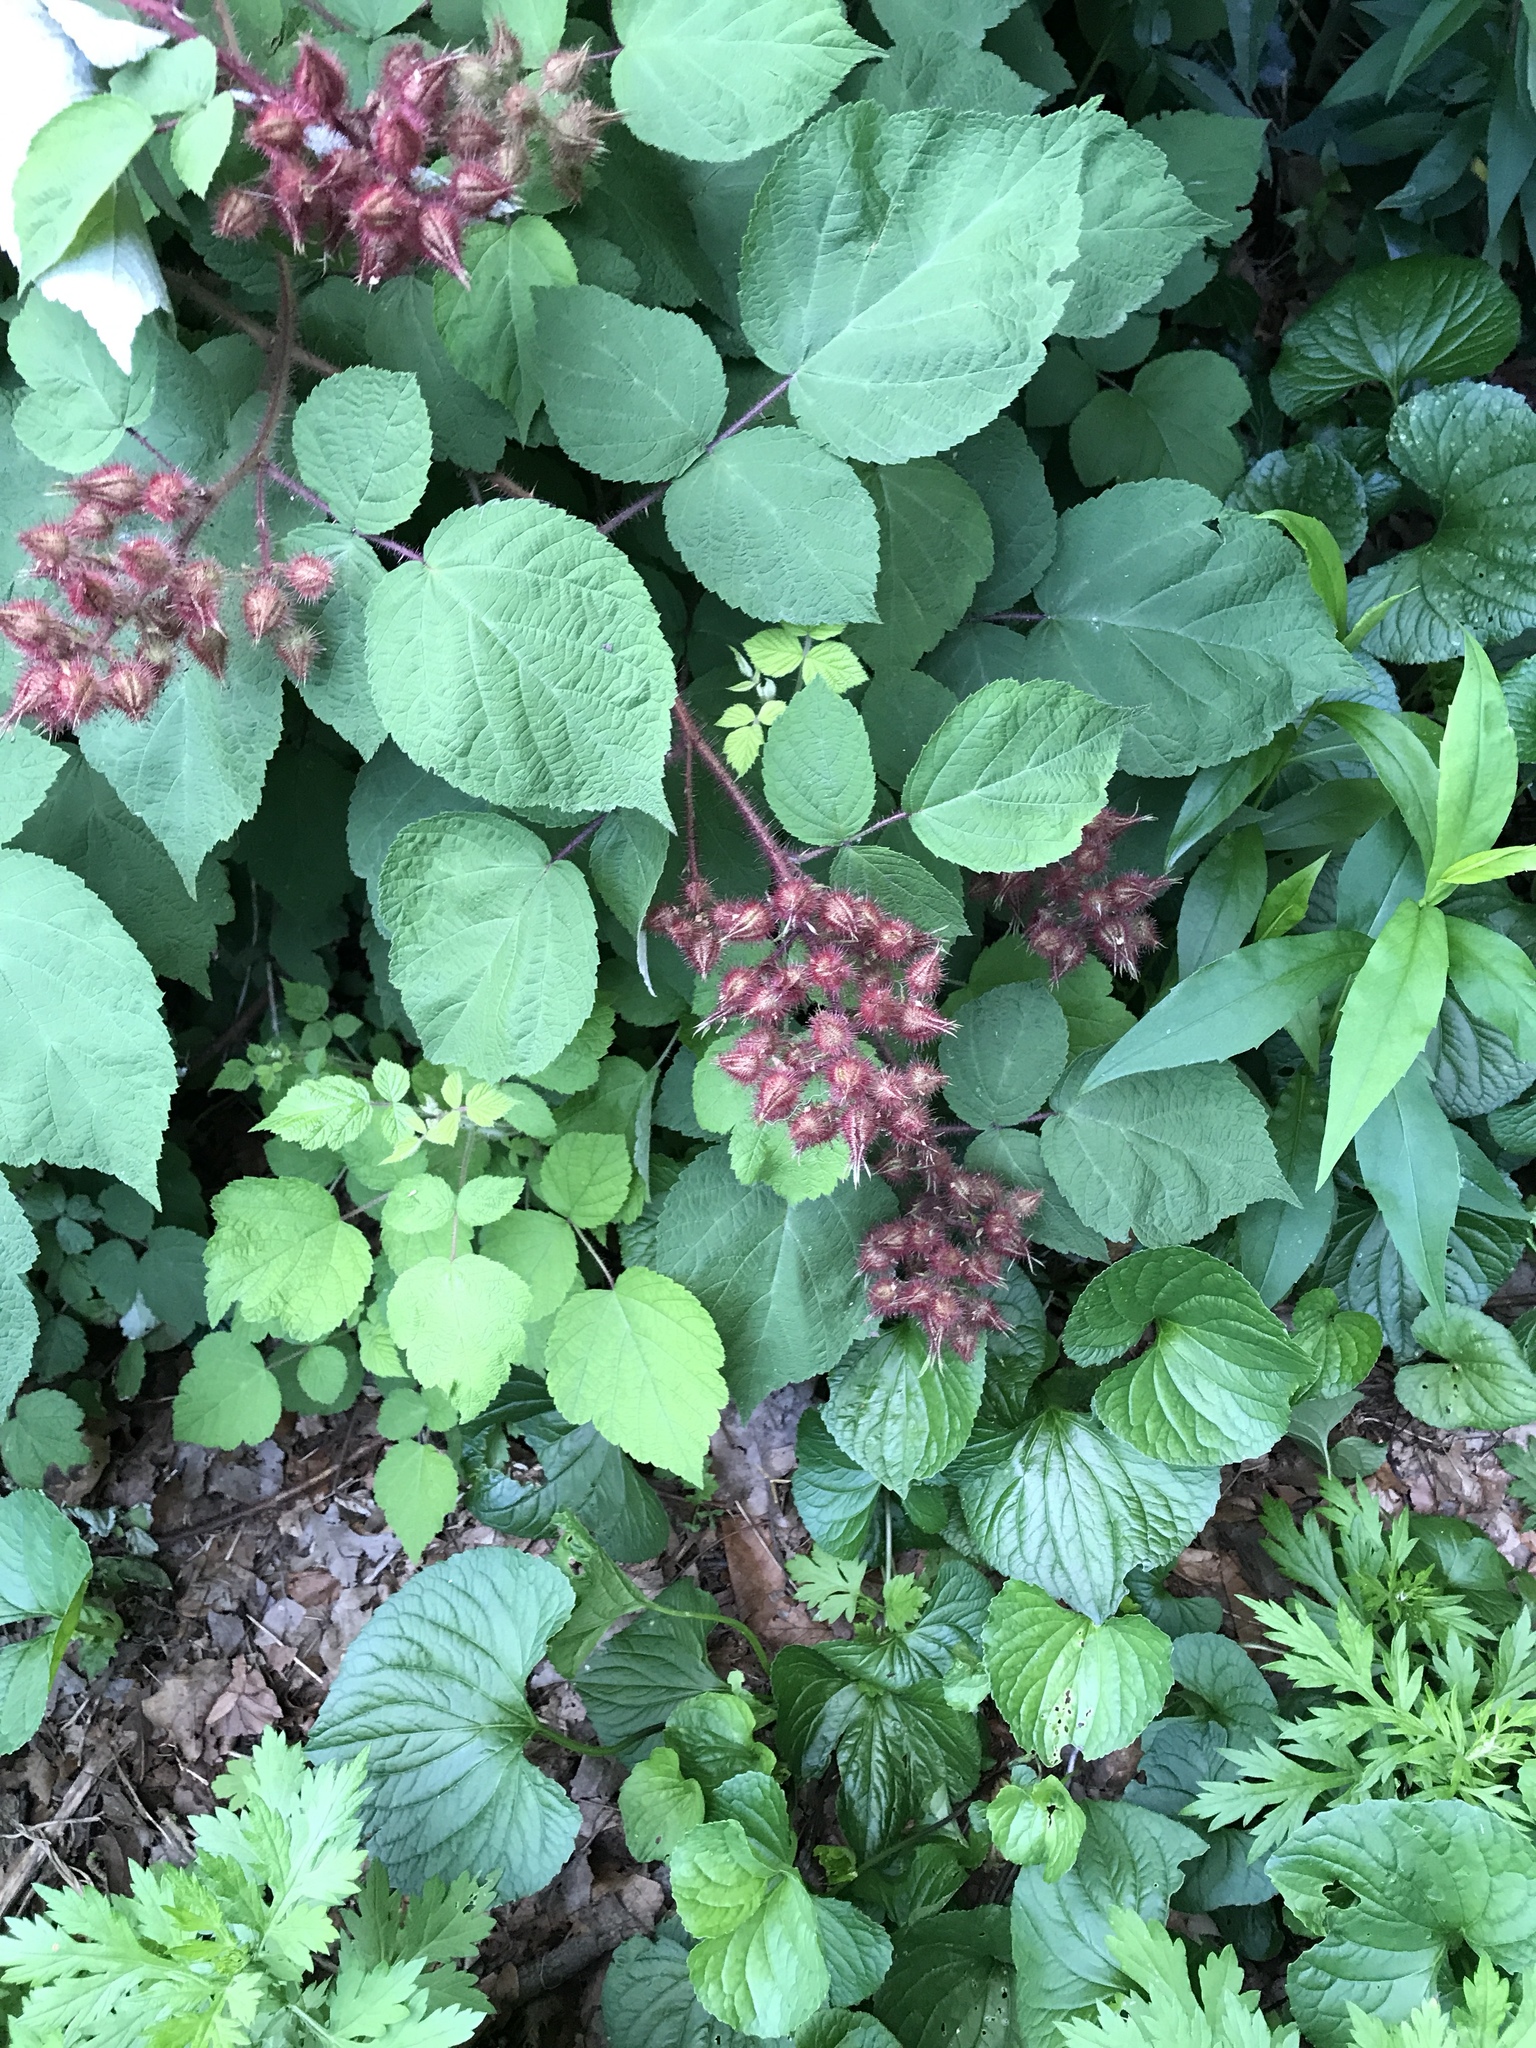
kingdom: Plantae
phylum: Tracheophyta
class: Magnoliopsida
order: Rosales
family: Rosaceae
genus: Rubus
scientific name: Rubus phoenicolasius
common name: Japanese wineberry
